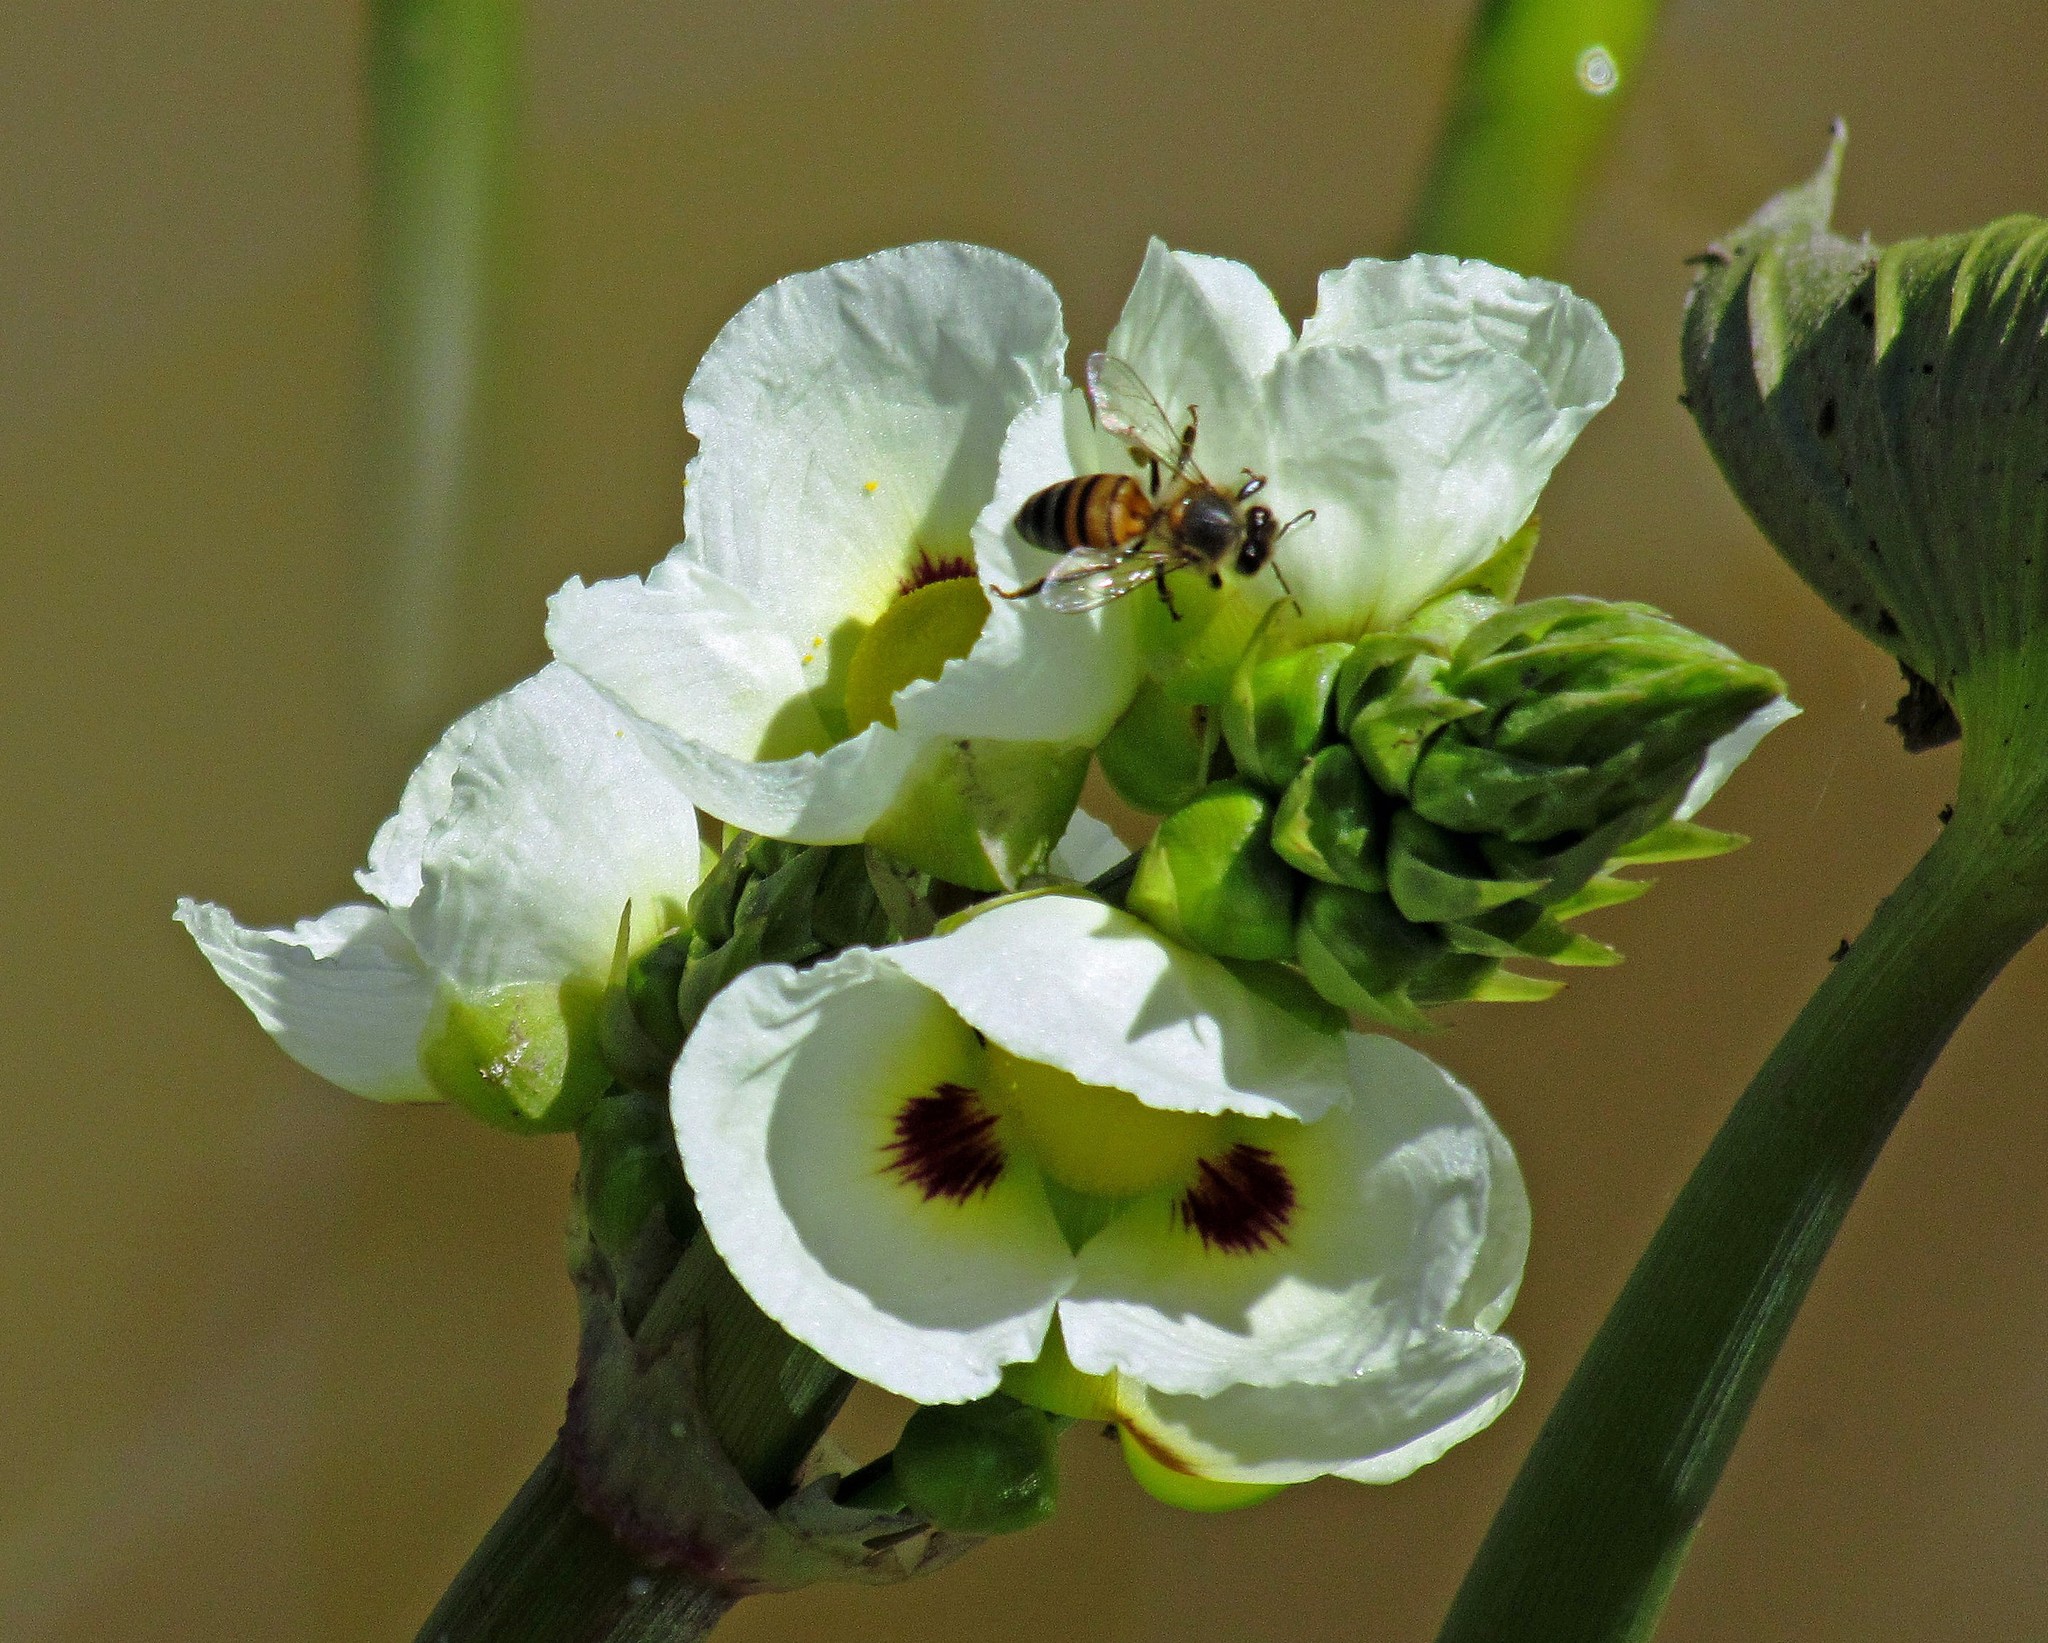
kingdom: Plantae
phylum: Tracheophyta
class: Liliopsida
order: Alismatales
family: Alismataceae
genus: Sagittaria
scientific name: Sagittaria montevidensis
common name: Giant arrowhead
